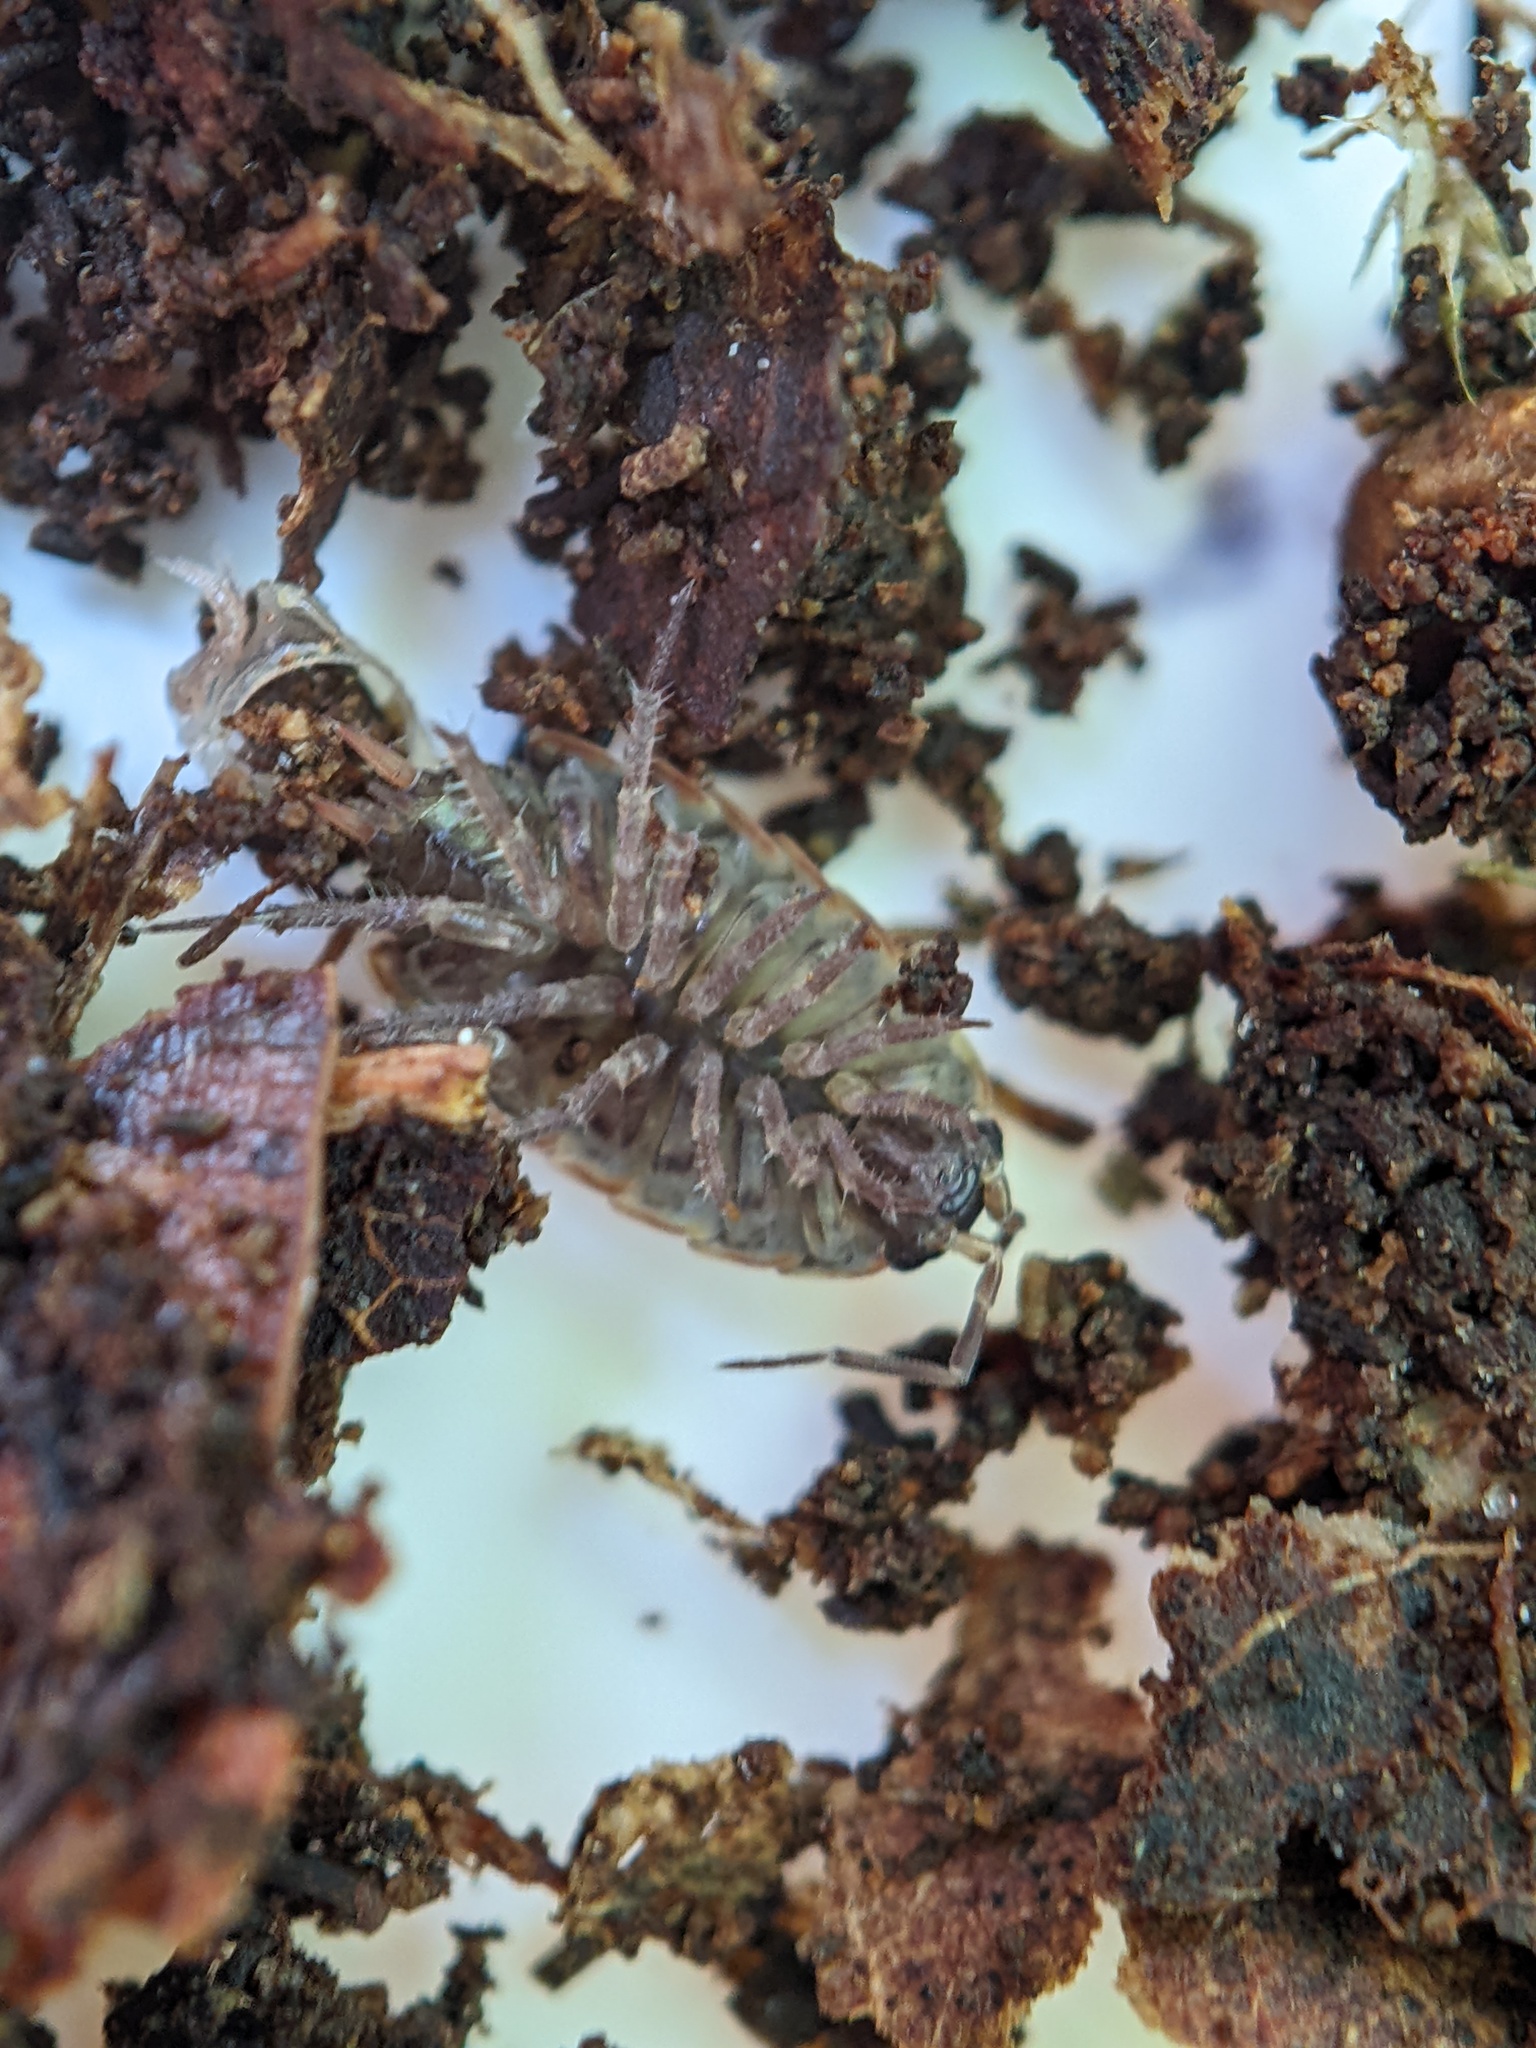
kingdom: Animalia
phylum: Arthropoda
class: Malacostraca
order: Isopoda
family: Philosciidae
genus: Philoscia
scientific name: Philoscia muscorum
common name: Common striped woodlouse
